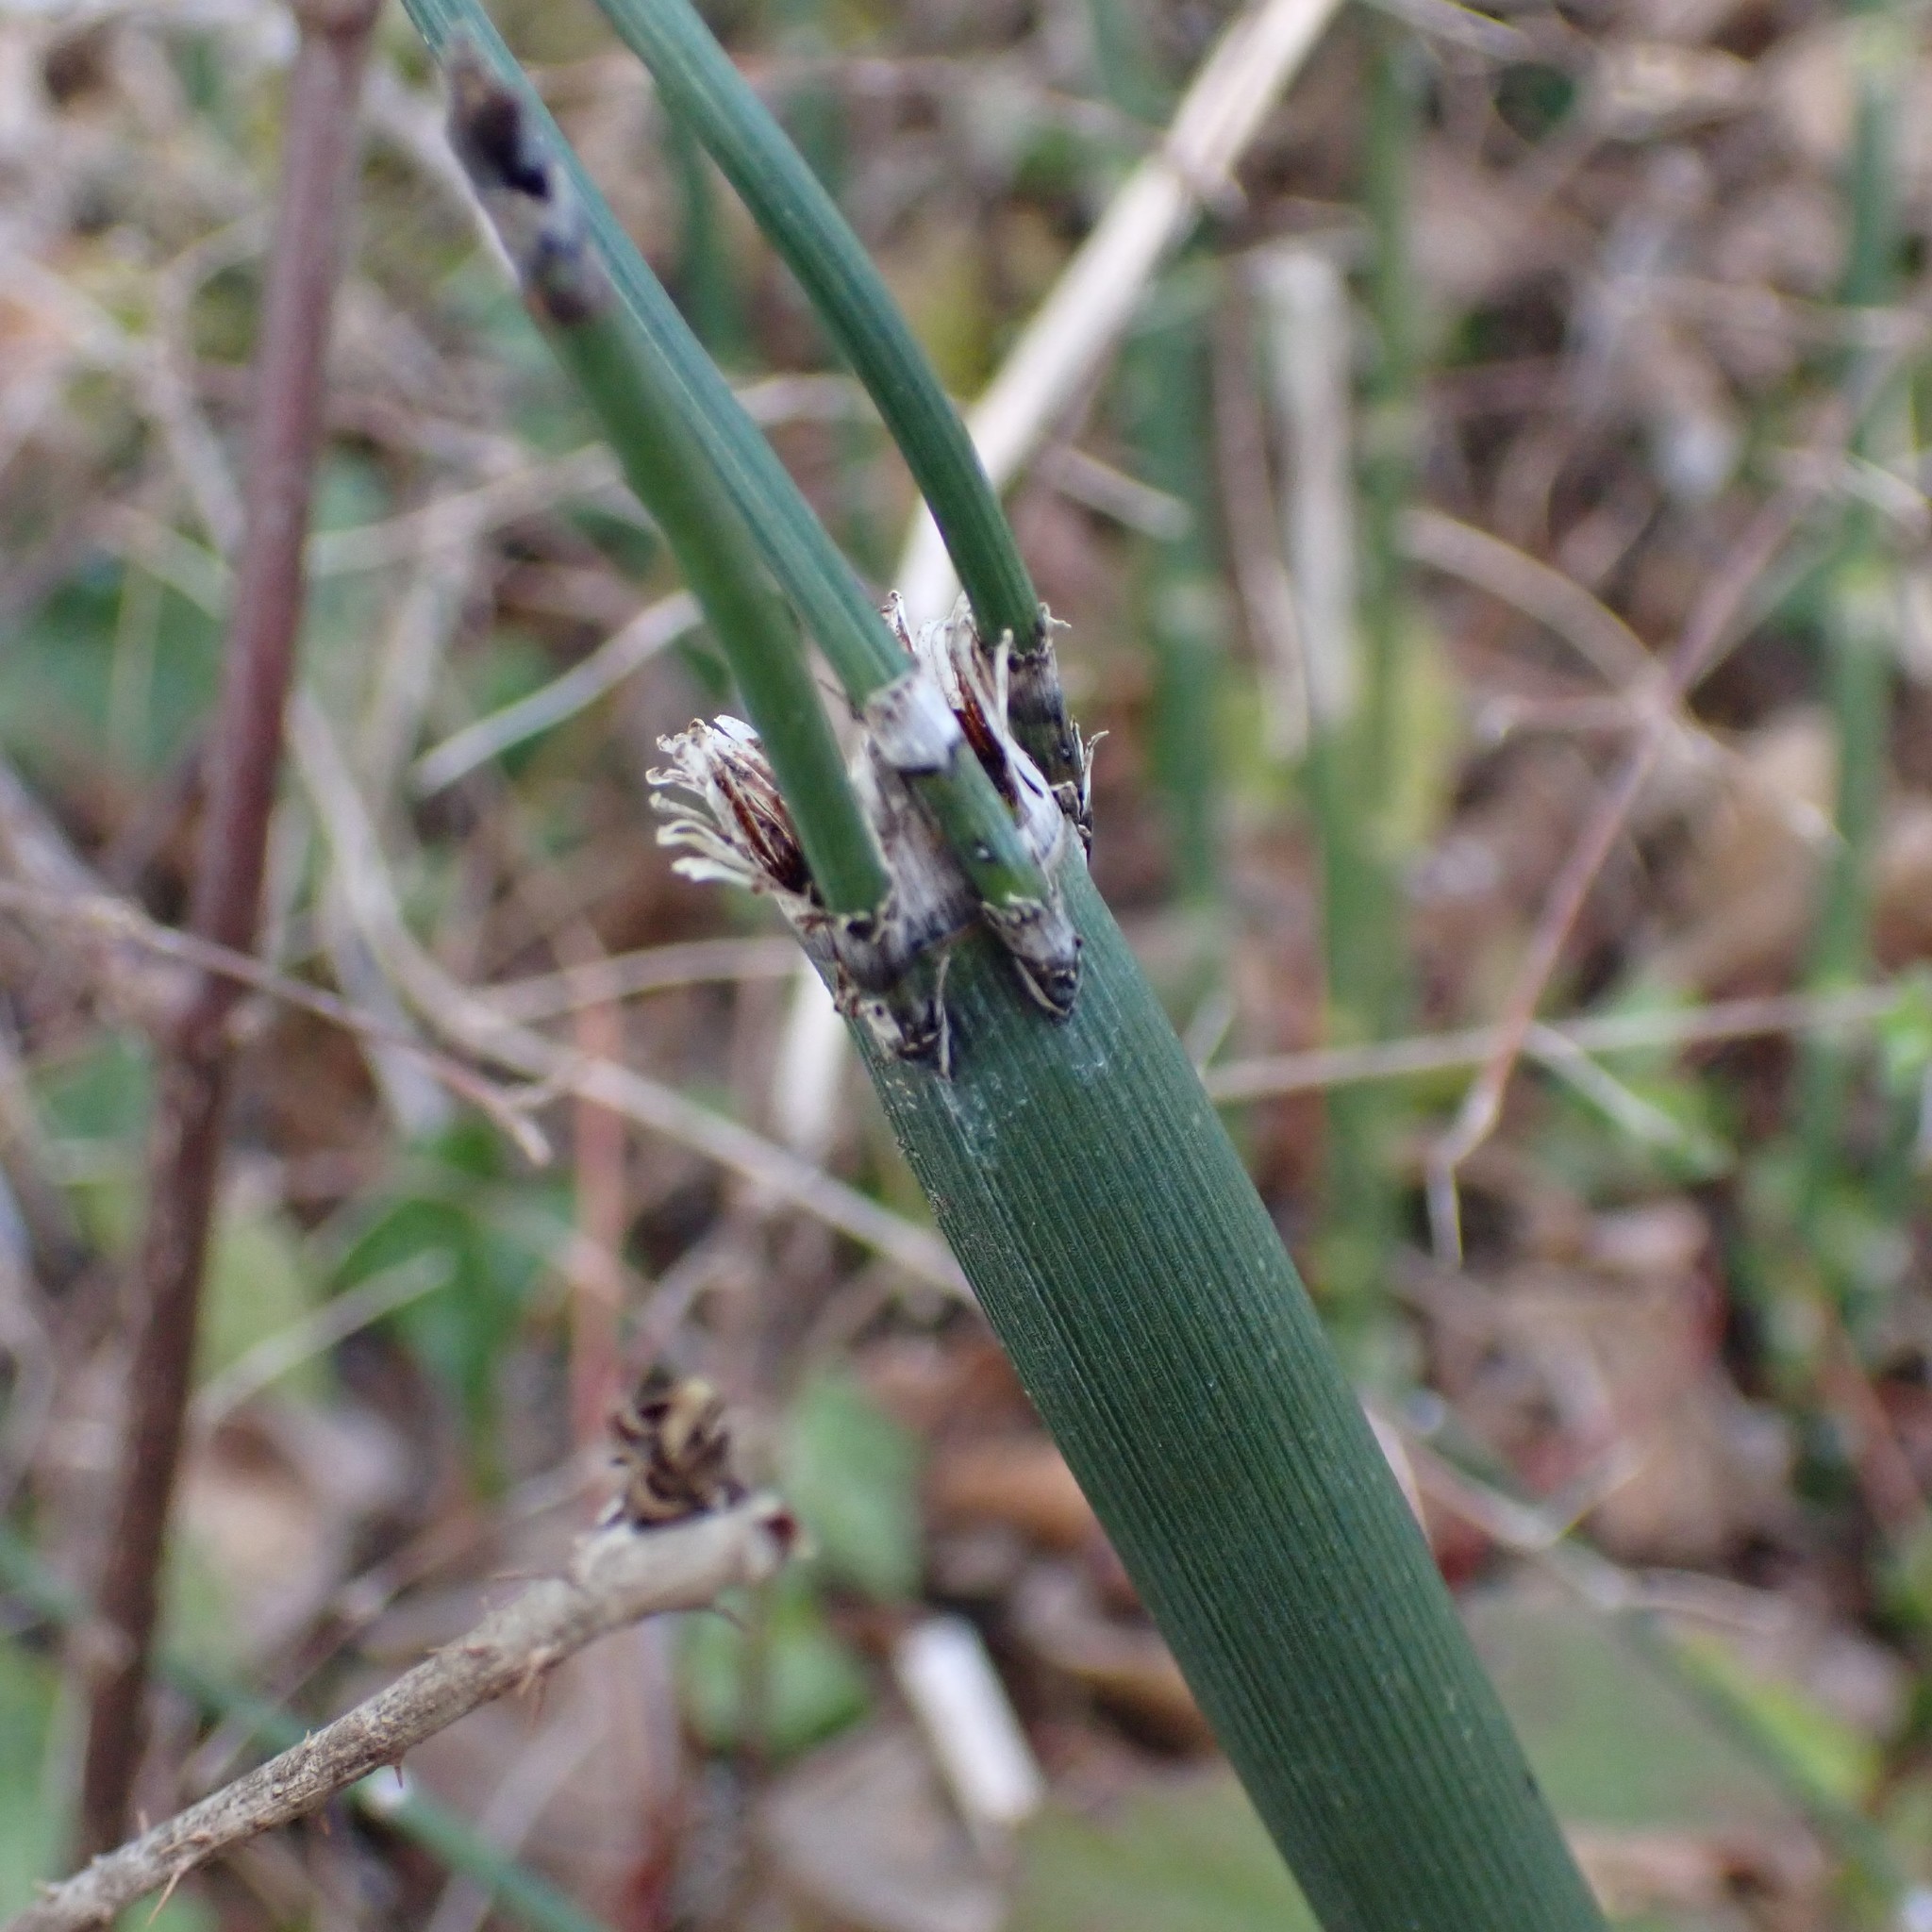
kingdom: Plantae
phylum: Tracheophyta
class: Polypodiopsida
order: Equisetales
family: Equisetaceae
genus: Equisetum
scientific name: Equisetum praealtum
